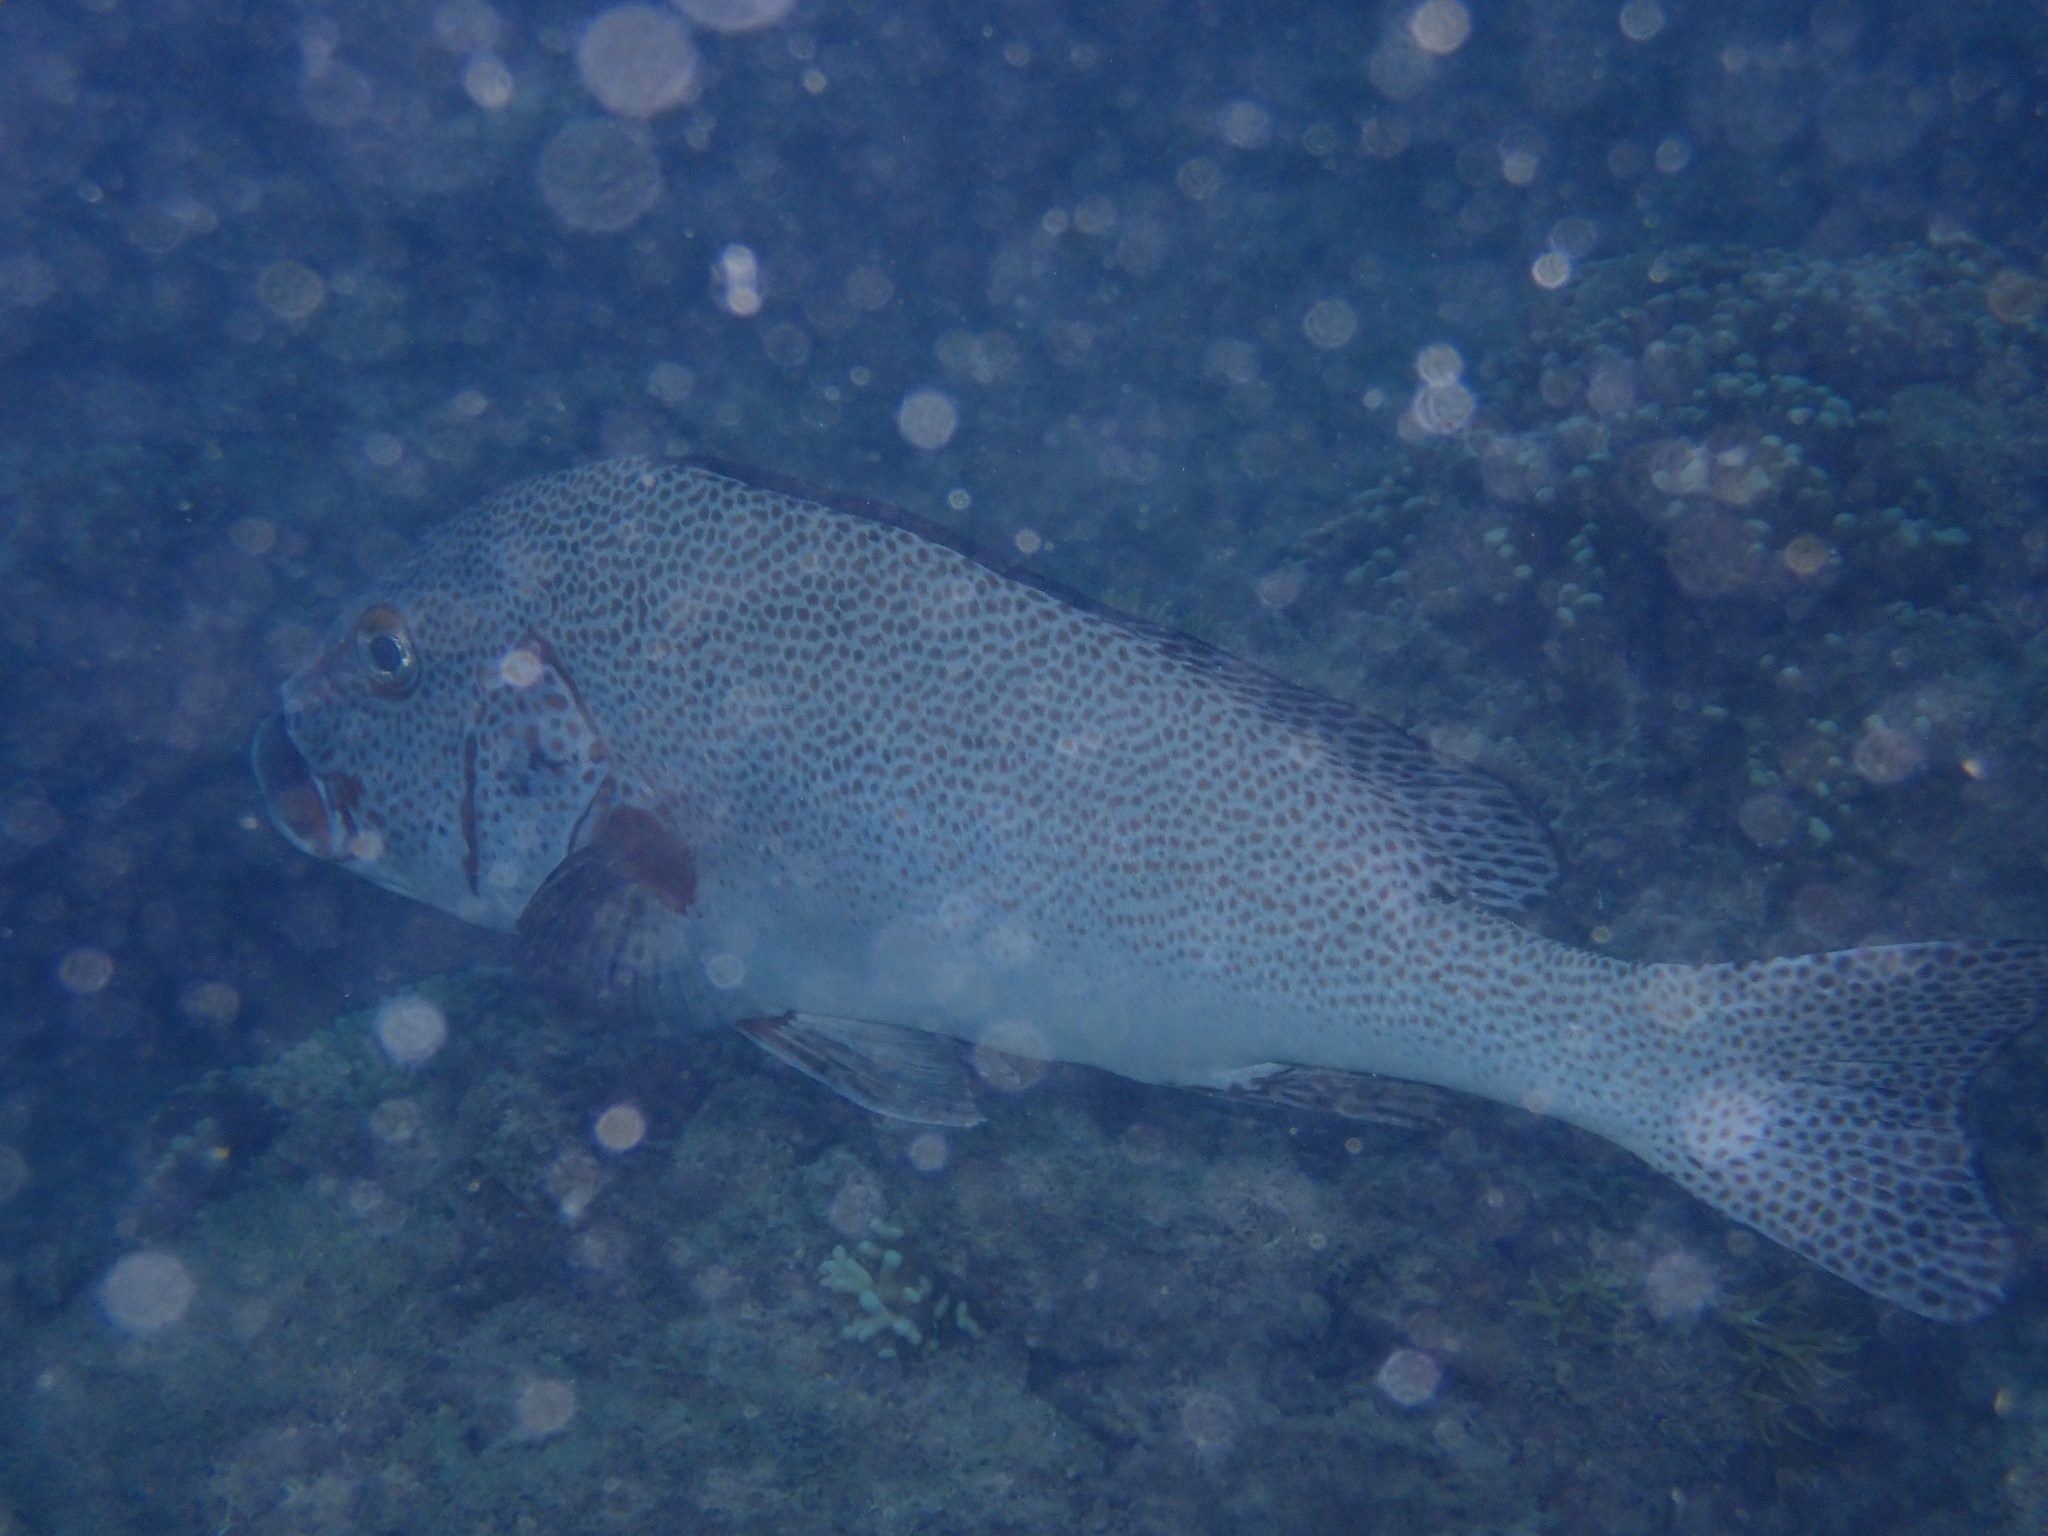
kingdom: Animalia
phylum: Chordata
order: Perciformes
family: Haemulidae
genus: Plectorhinchus
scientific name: Plectorhinchus picus
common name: Spotted sweetlips
